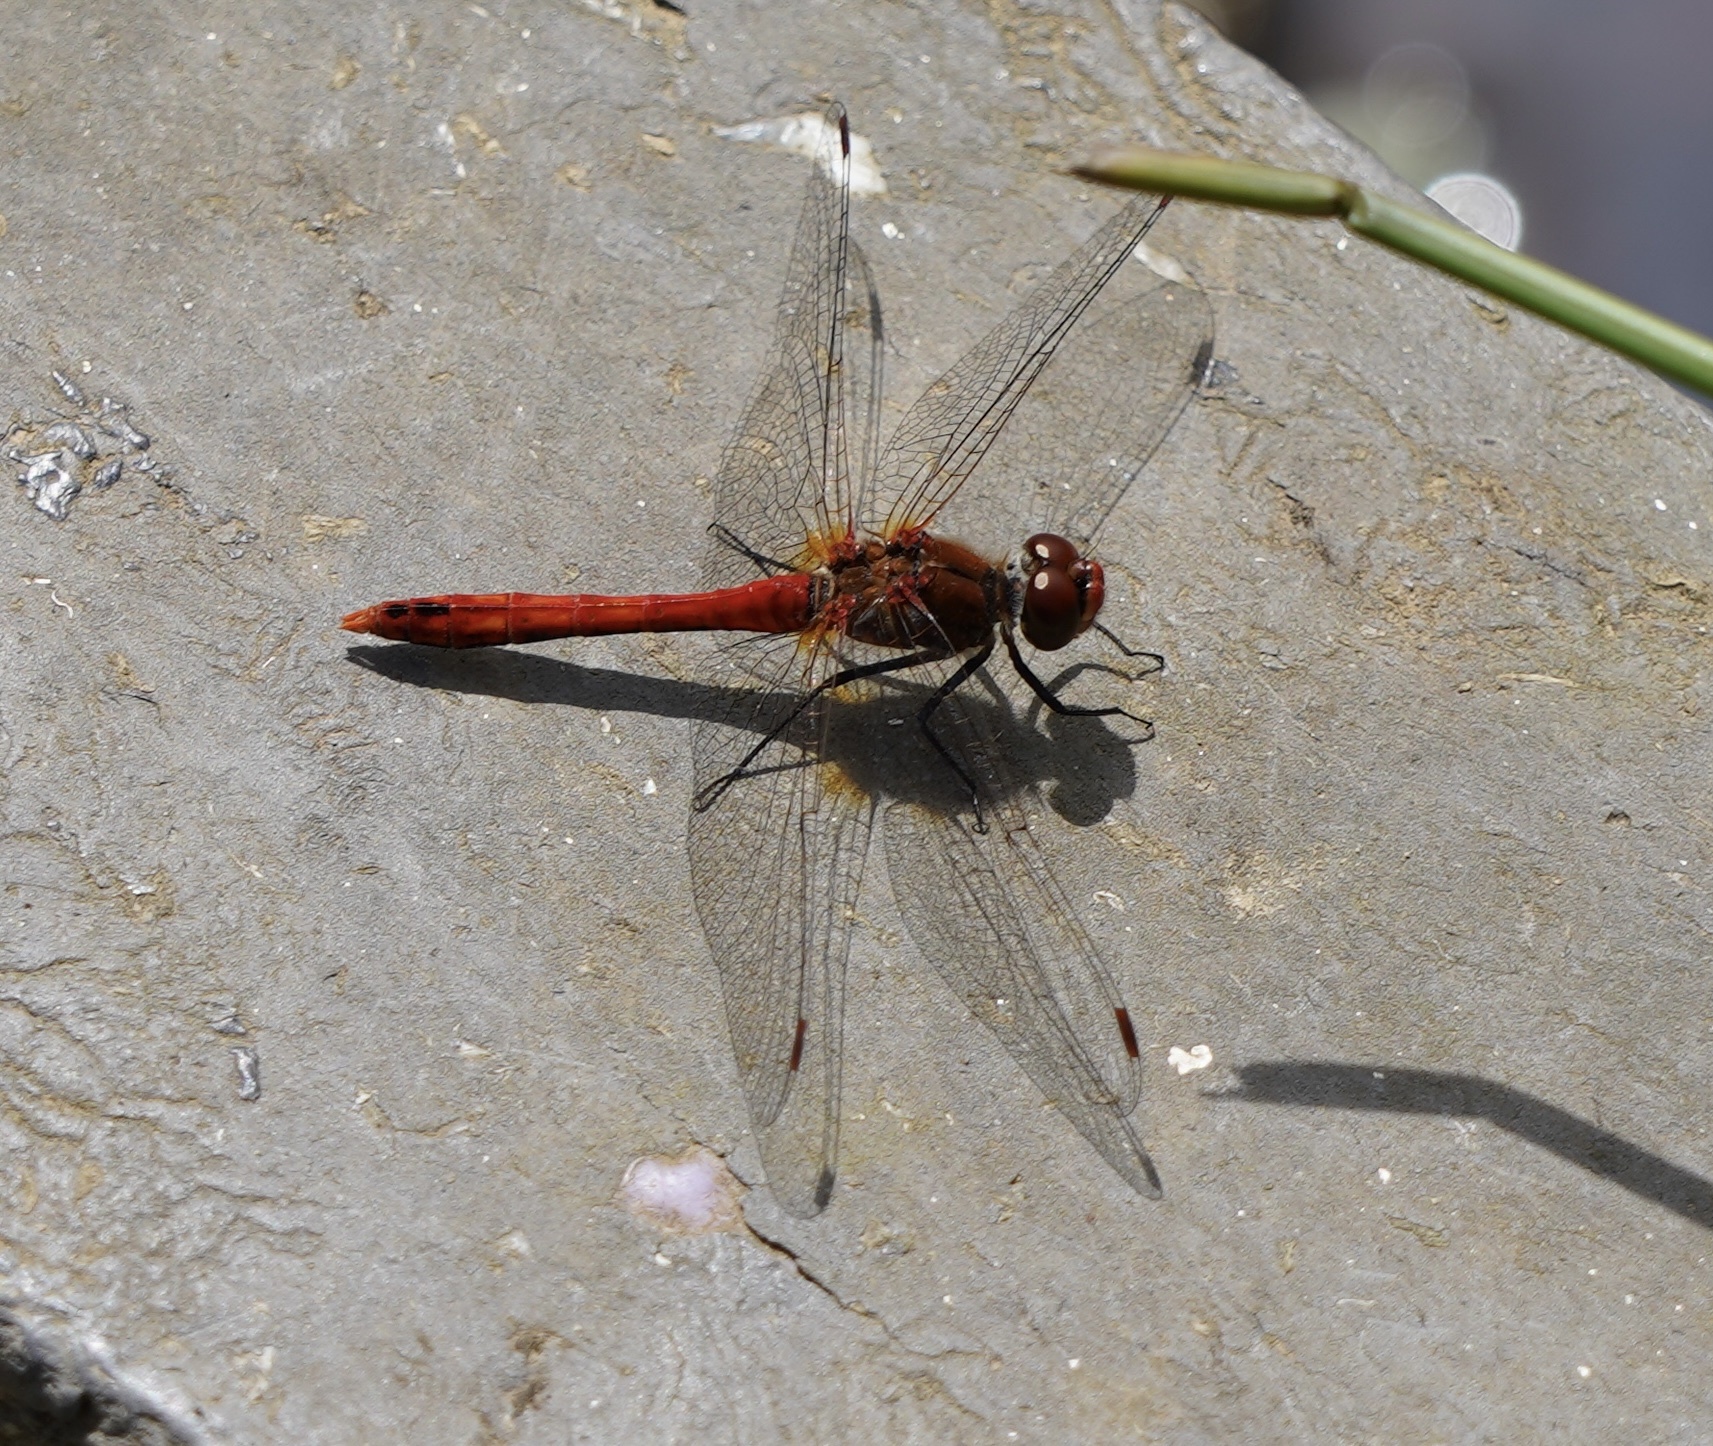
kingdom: Animalia
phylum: Arthropoda
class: Insecta
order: Odonata
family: Libellulidae
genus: Sympetrum
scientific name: Sympetrum sanguineum
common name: Ruddy darter
